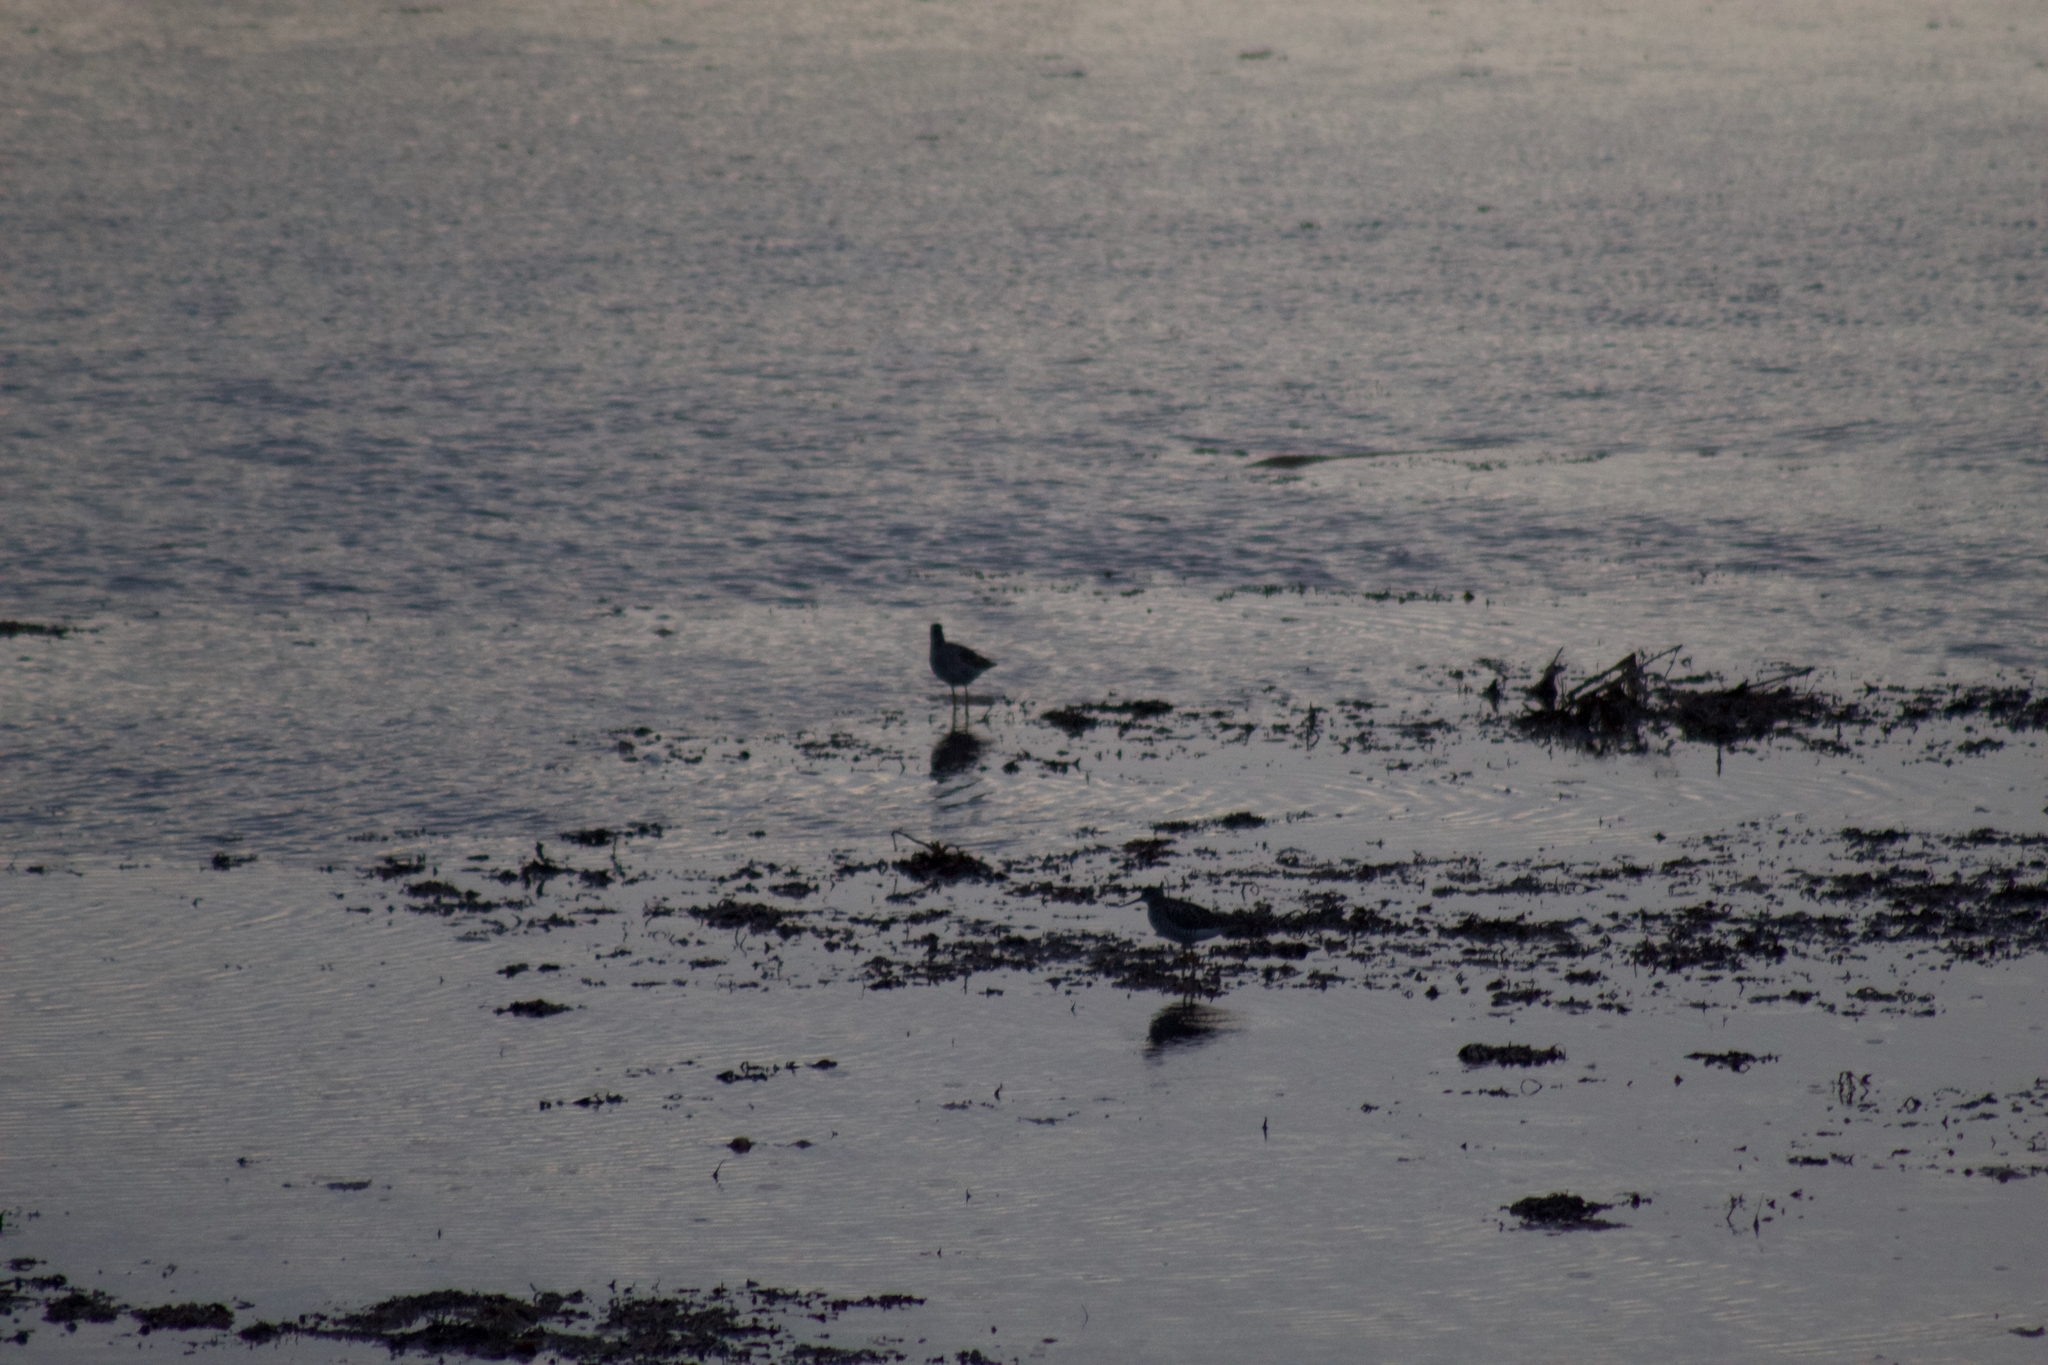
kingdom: Animalia
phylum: Chordata
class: Aves
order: Charadriiformes
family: Scolopacidae
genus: Tringa
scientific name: Tringa melanoleuca
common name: Greater yellowlegs
